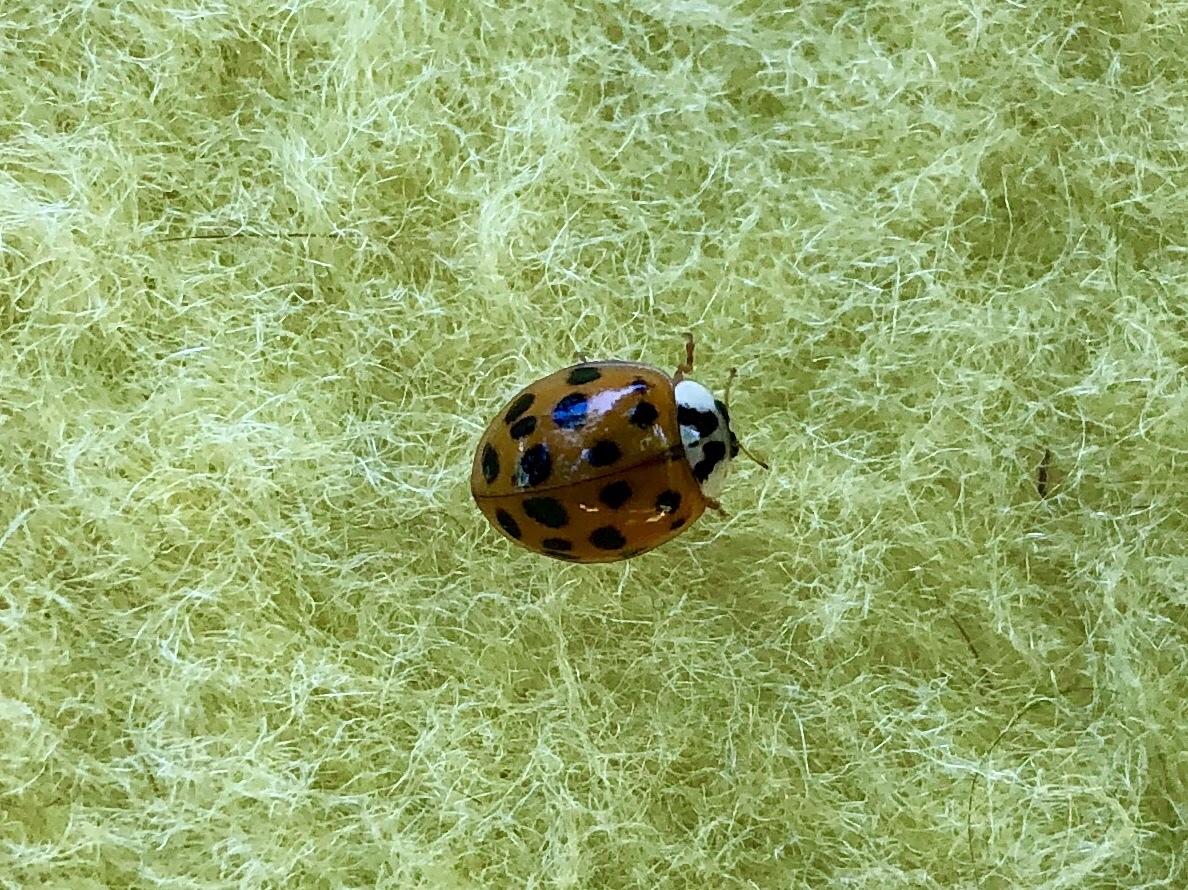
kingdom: Animalia
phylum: Arthropoda
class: Insecta
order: Coleoptera
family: Coccinellidae
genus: Harmonia
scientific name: Harmonia axyridis
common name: Harlequin ladybird
